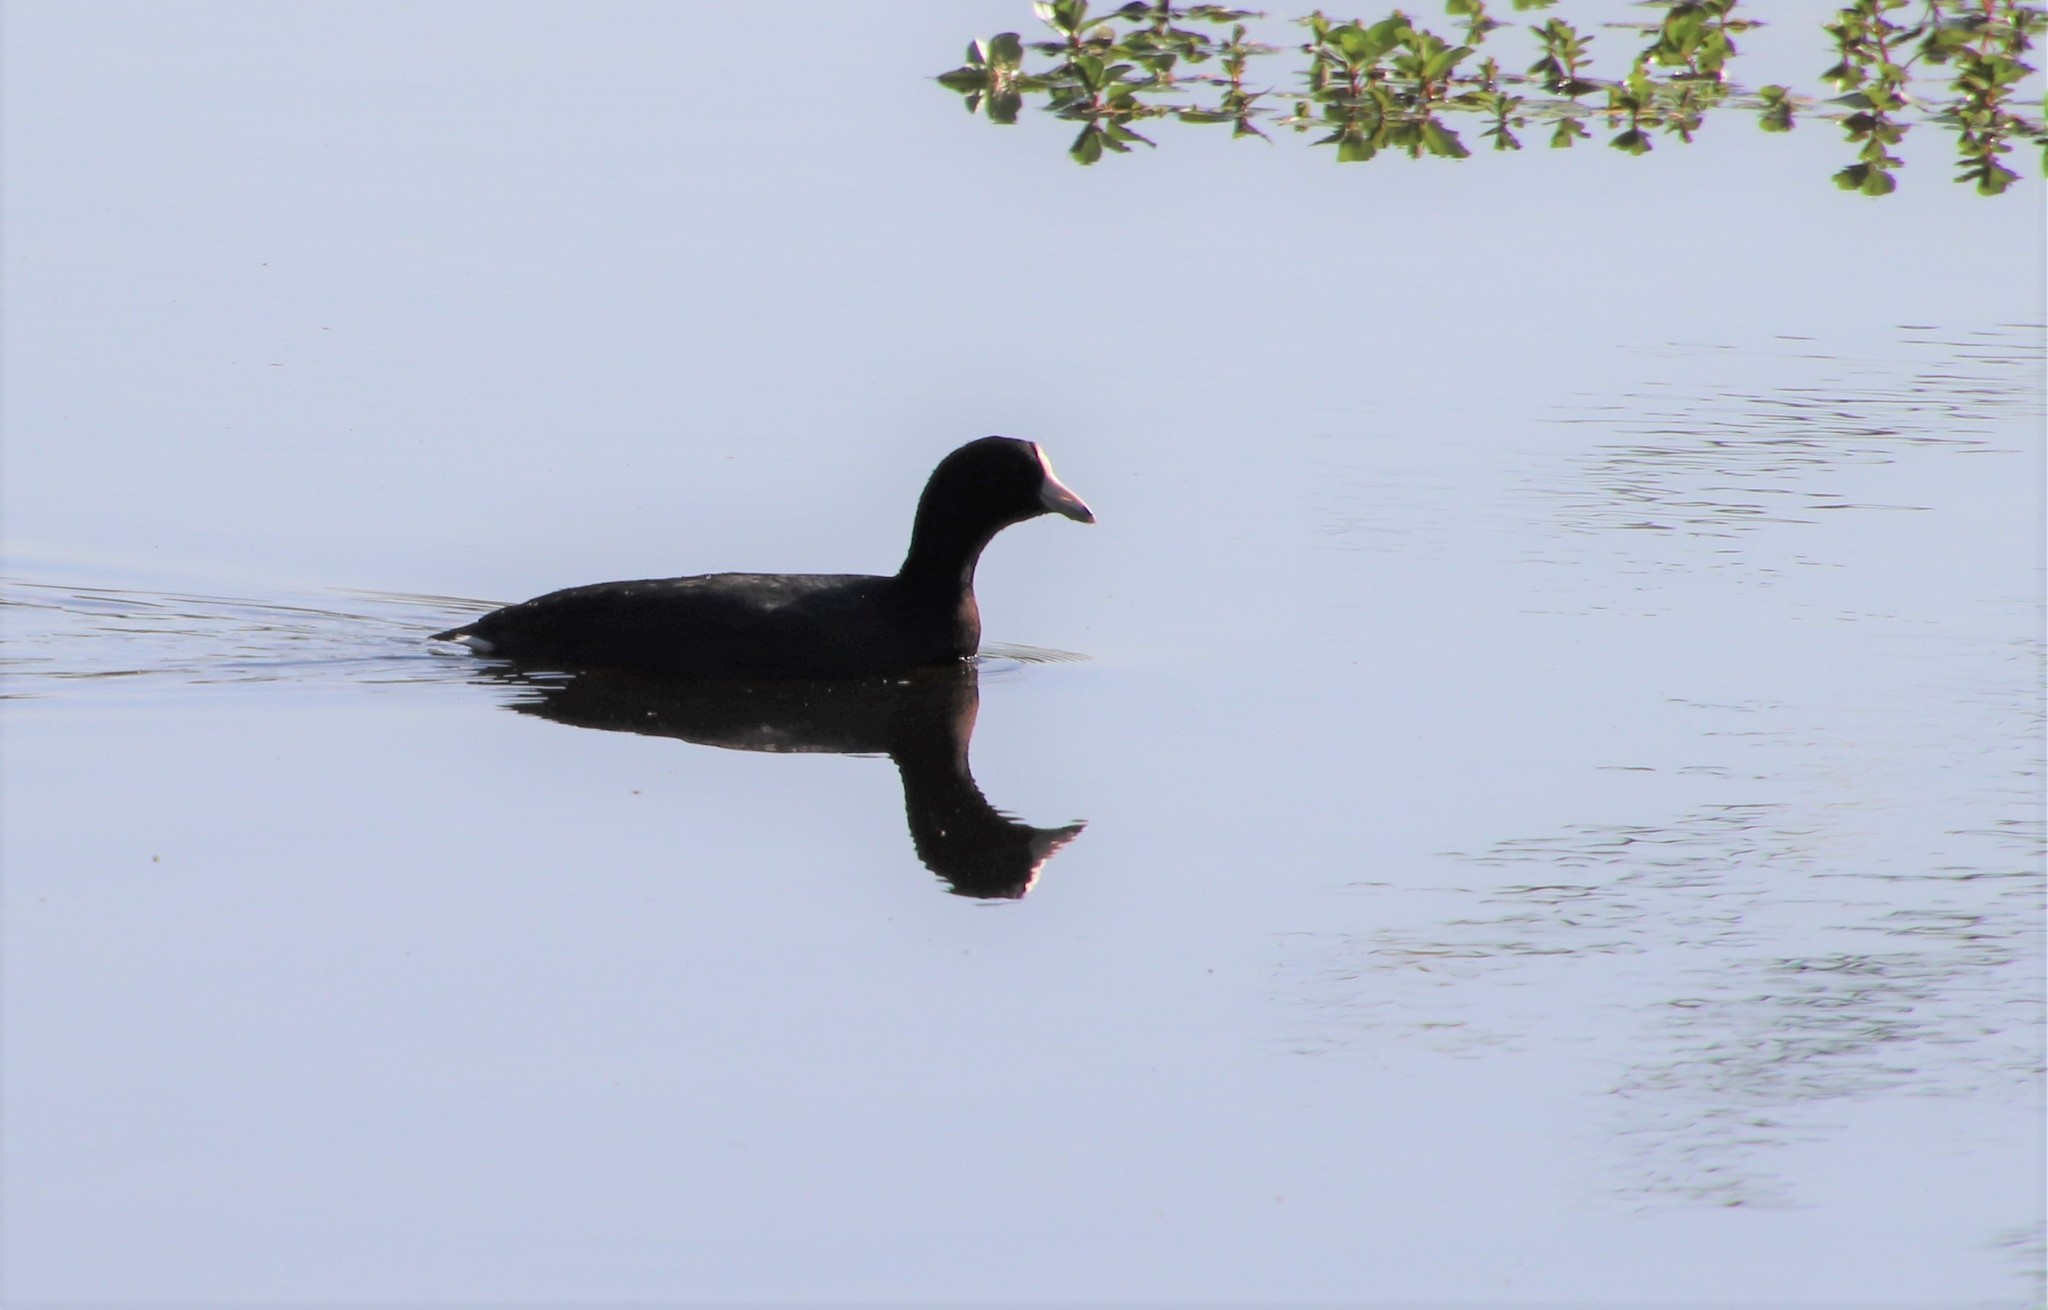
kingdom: Animalia
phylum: Chordata
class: Aves
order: Gruiformes
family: Rallidae
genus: Fulica
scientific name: Fulica americana
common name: American coot
